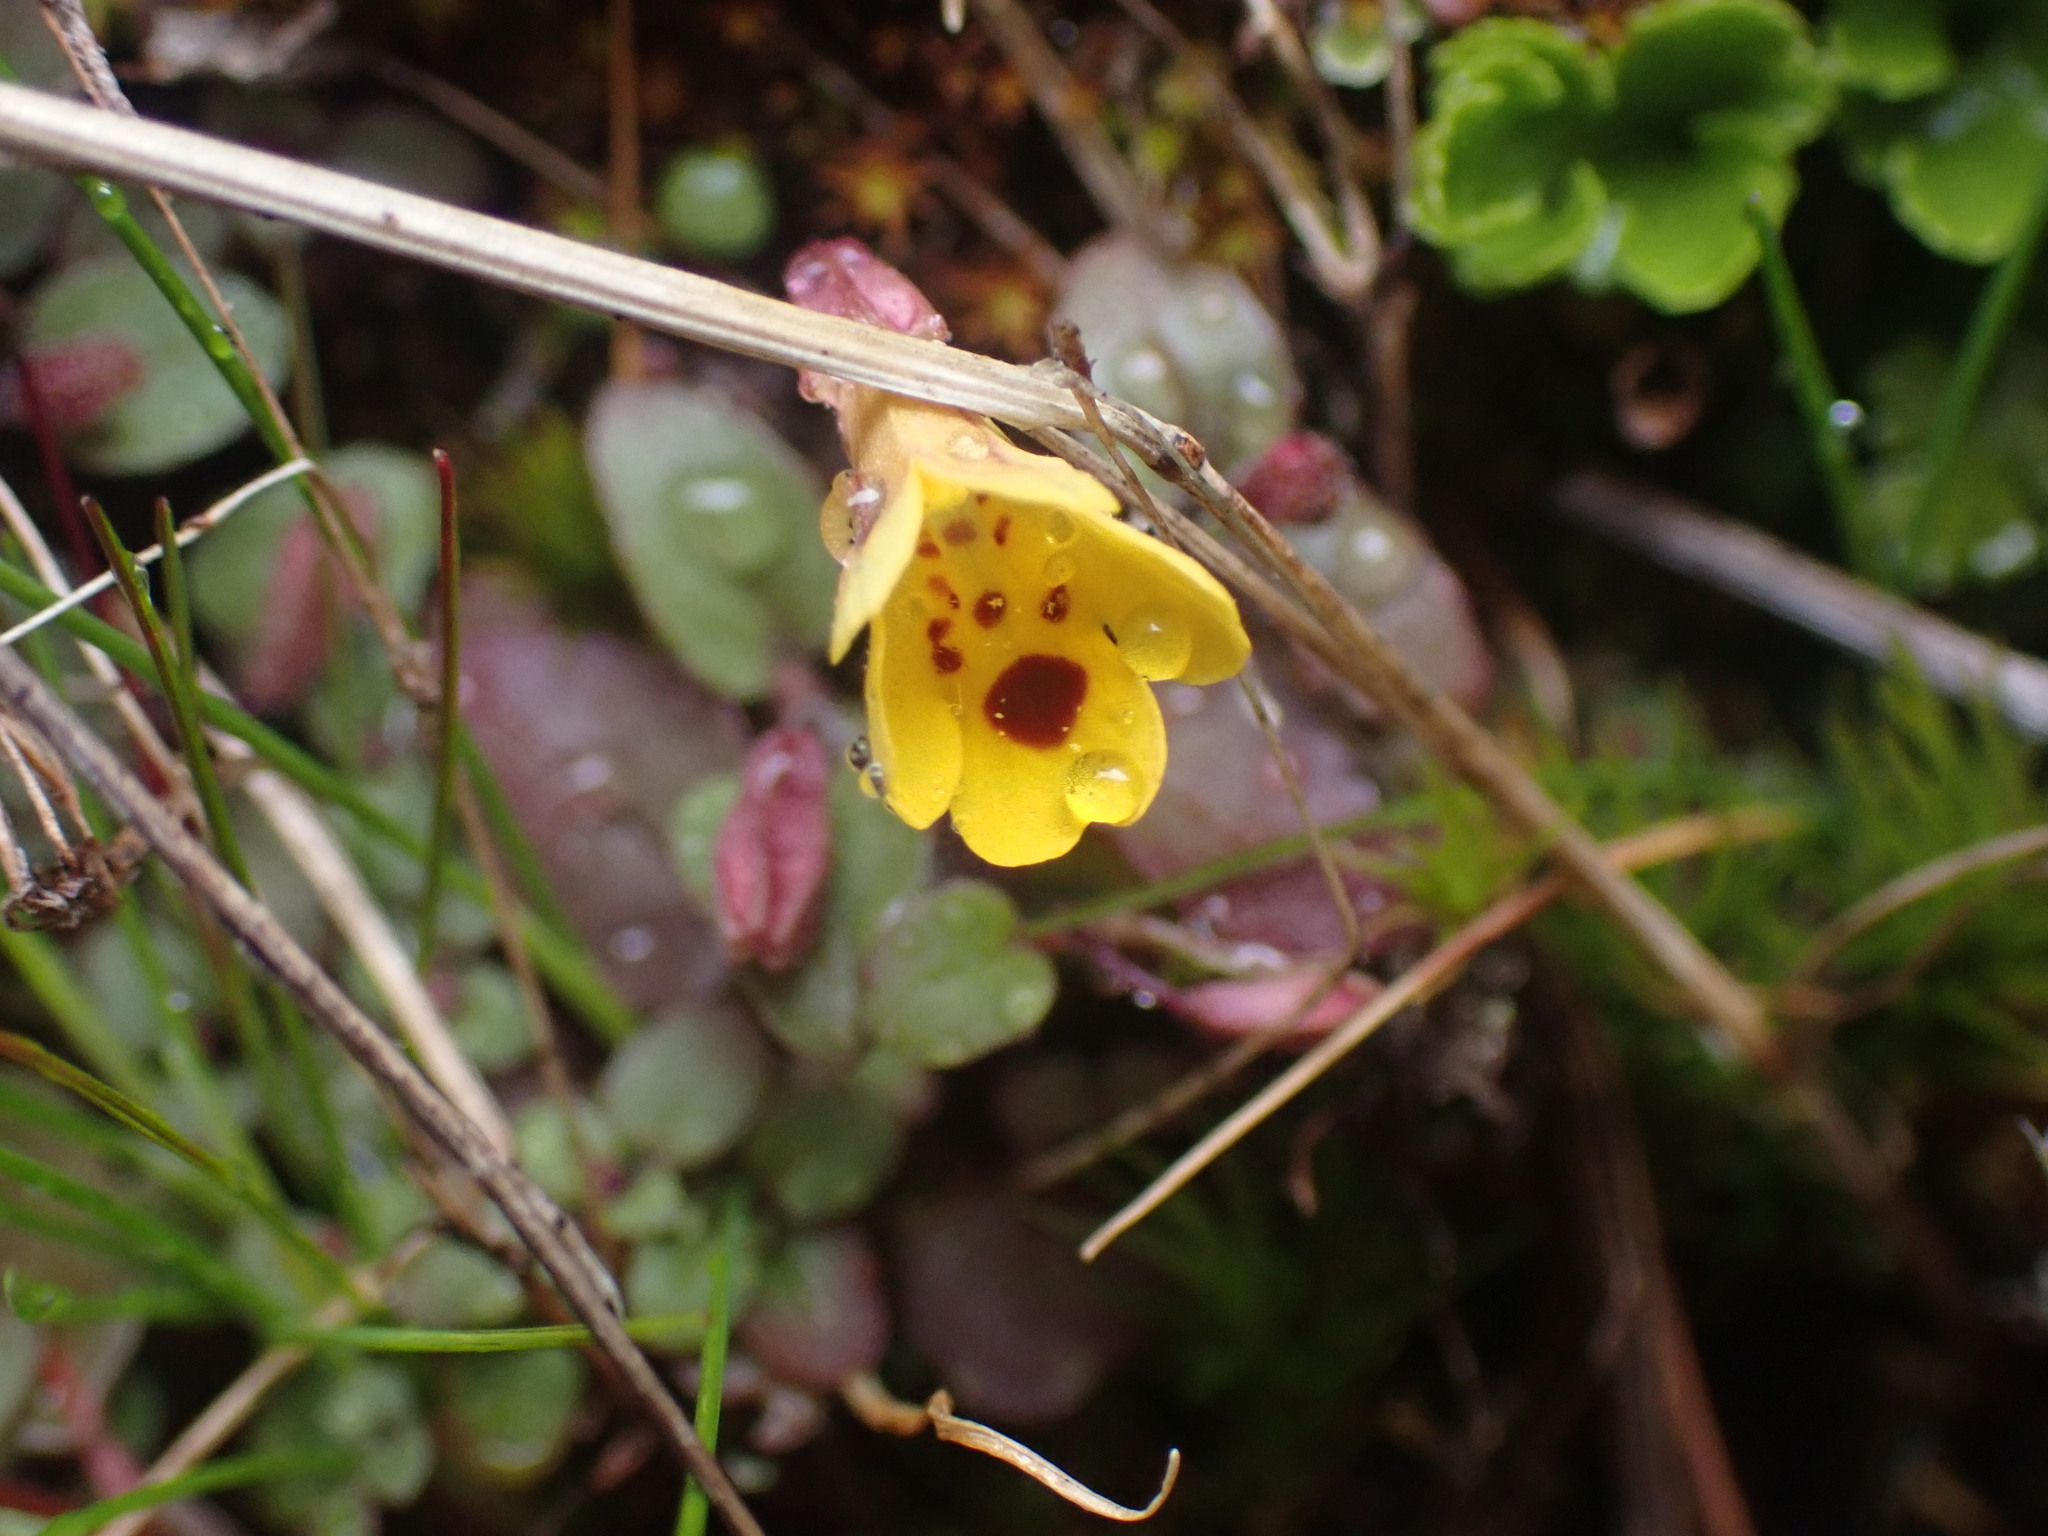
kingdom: Plantae
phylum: Tracheophyta
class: Magnoliopsida
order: Lamiales
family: Phrymaceae
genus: Erythranthe
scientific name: Erythranthe alsinoides
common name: Chickweed monkeyflower
